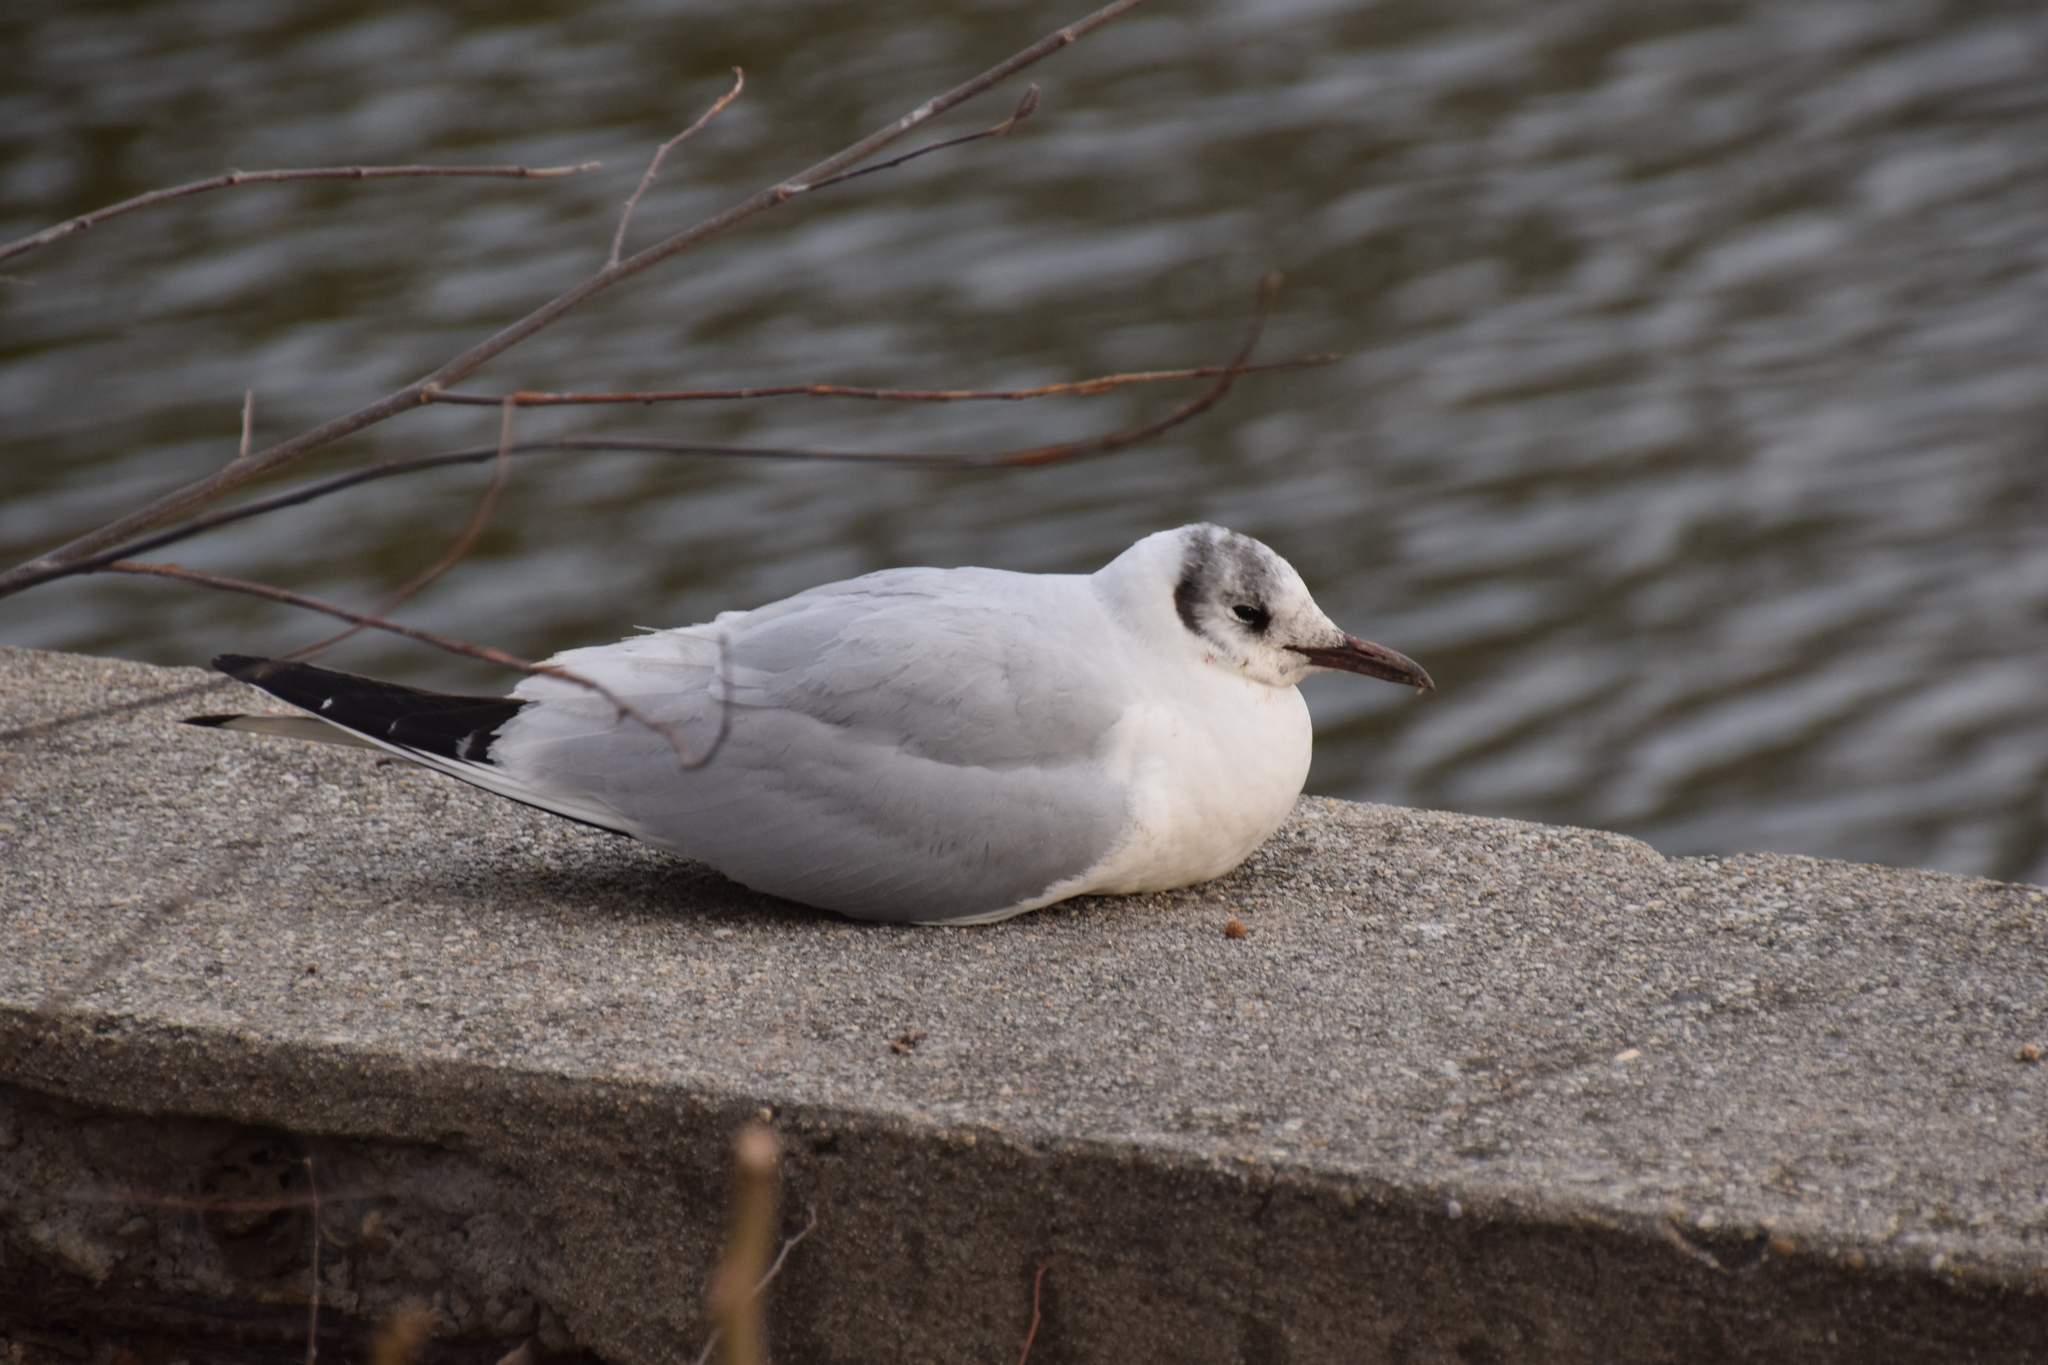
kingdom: Animalia
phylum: Chordata
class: Aves
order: Charadriiformes
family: Laridae
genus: Chroicocephalus
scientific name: Chroicocephalus ridibundus
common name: Black-headed gull
